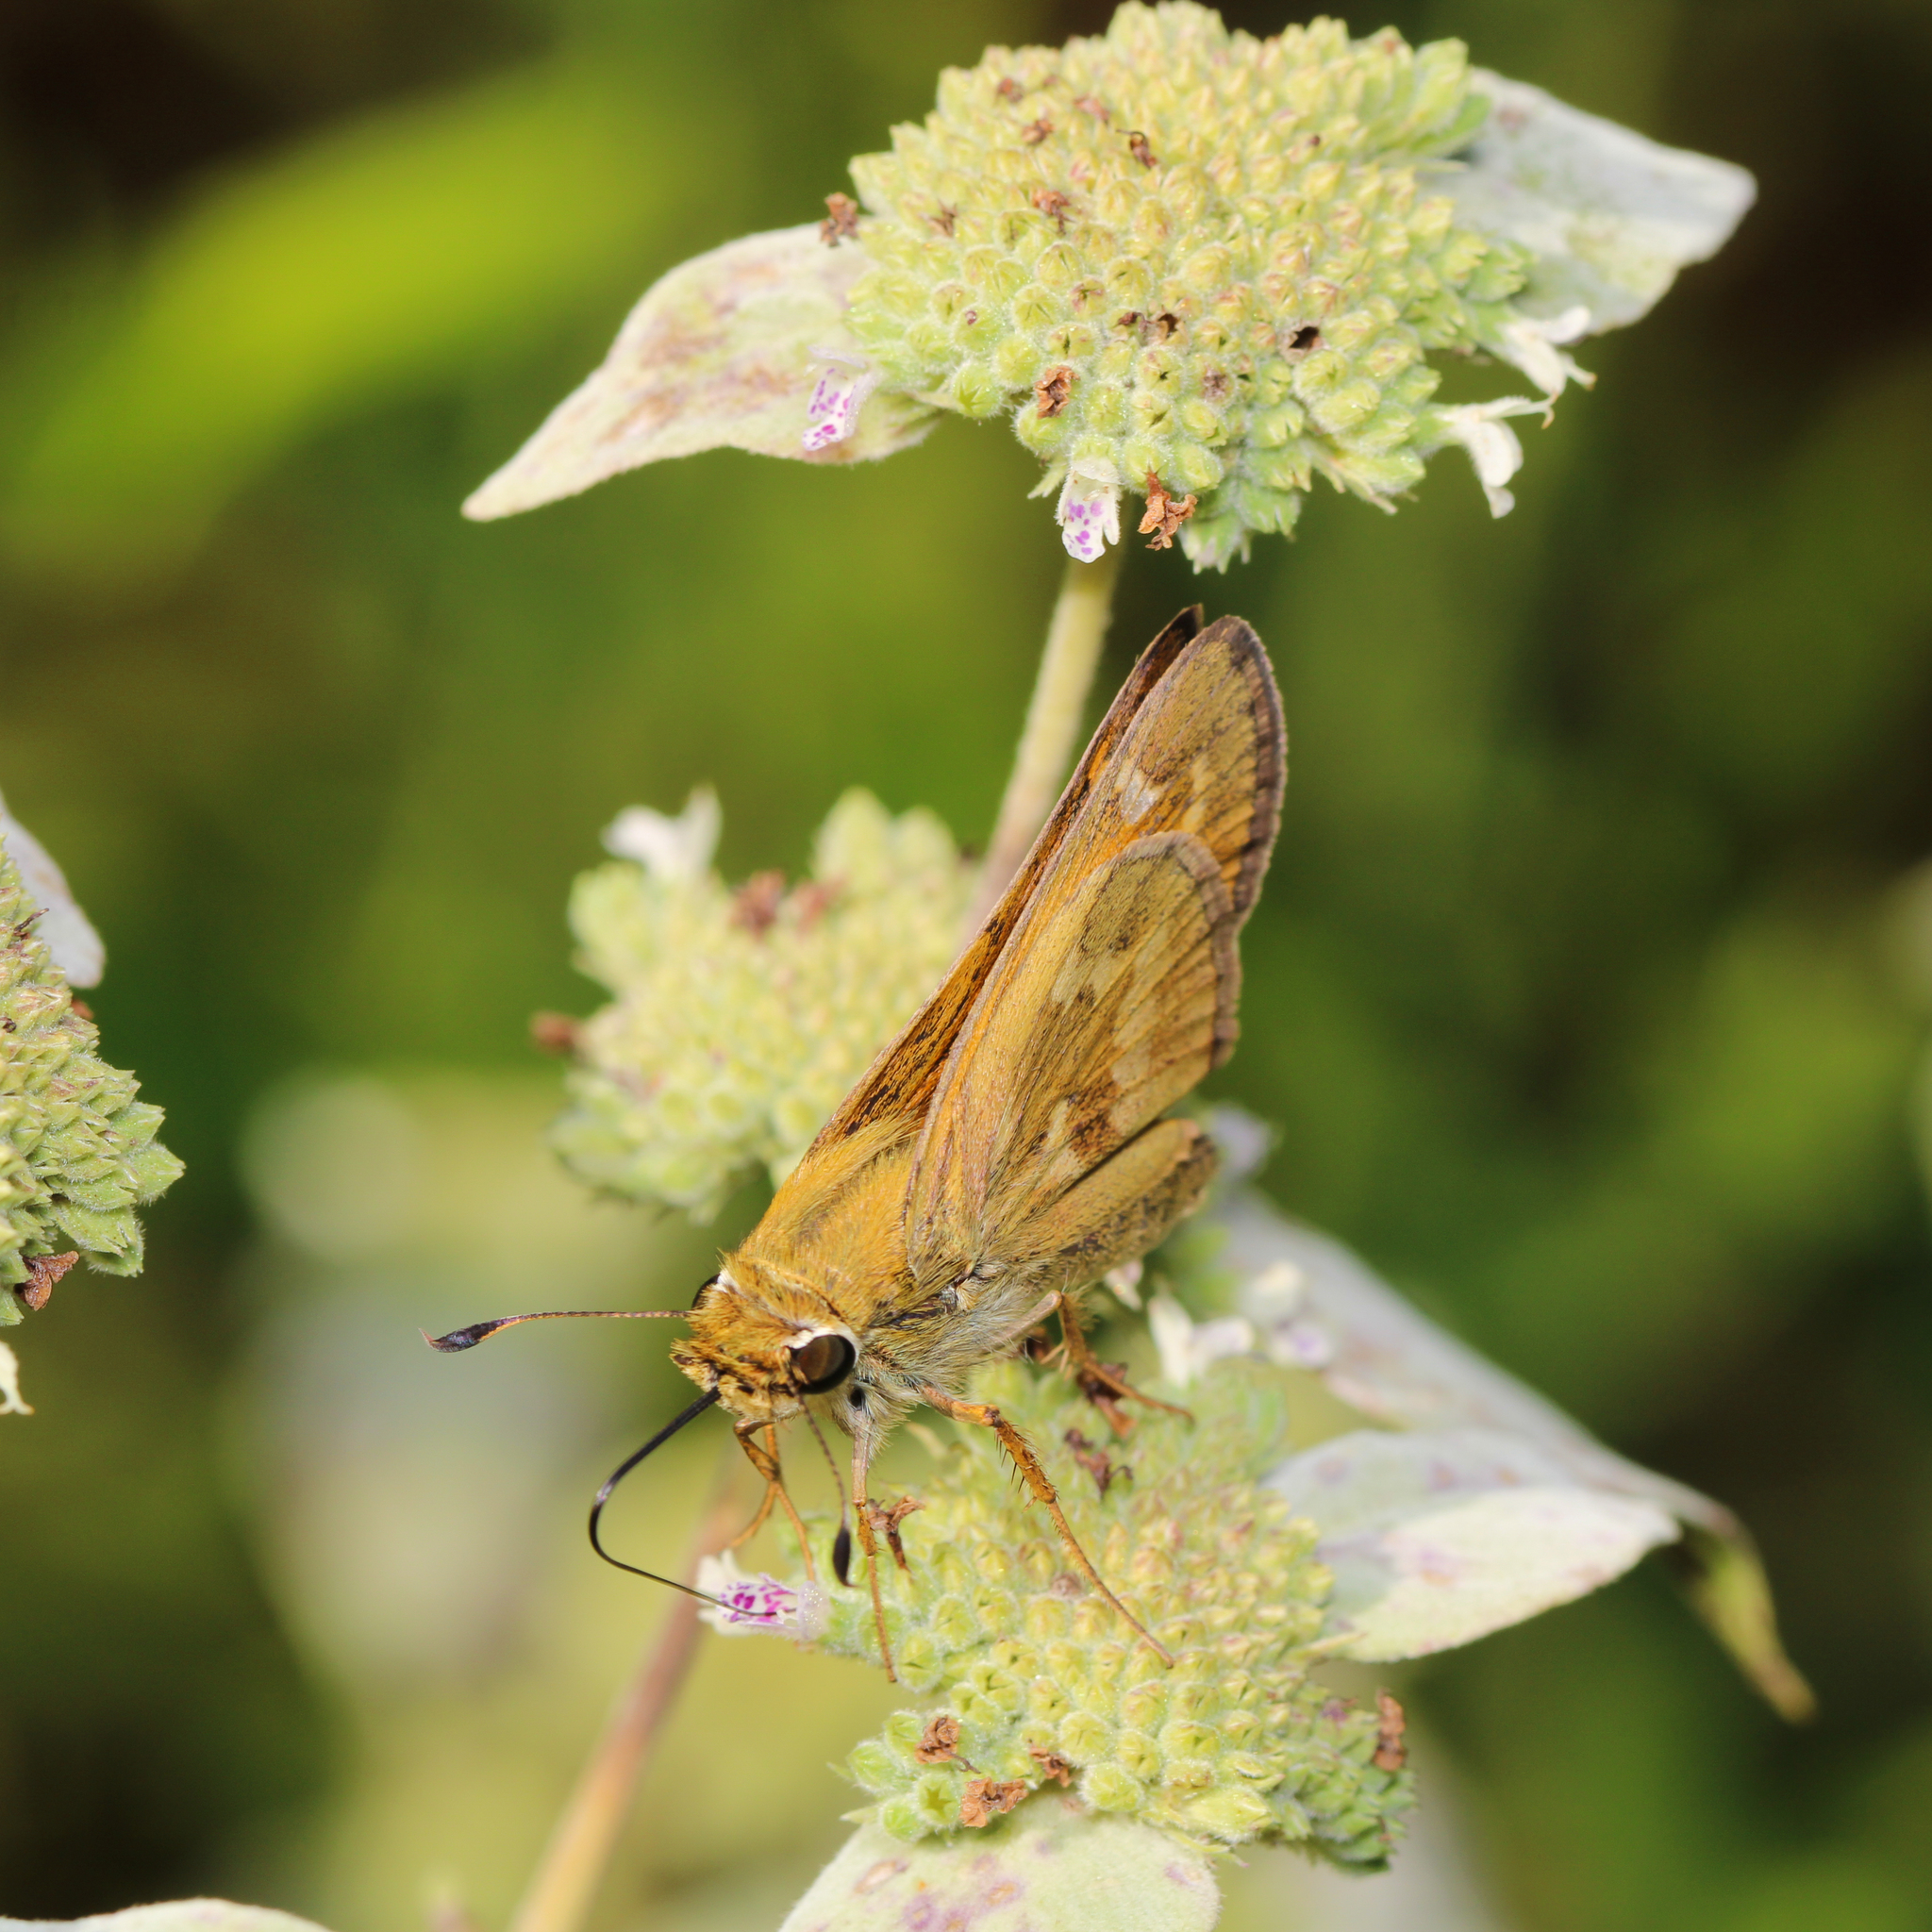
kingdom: Animalia
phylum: Arthropoda
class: Insecta
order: Lepidoptera
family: Hesperiidae
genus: Atalopedes
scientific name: Atalopedes
